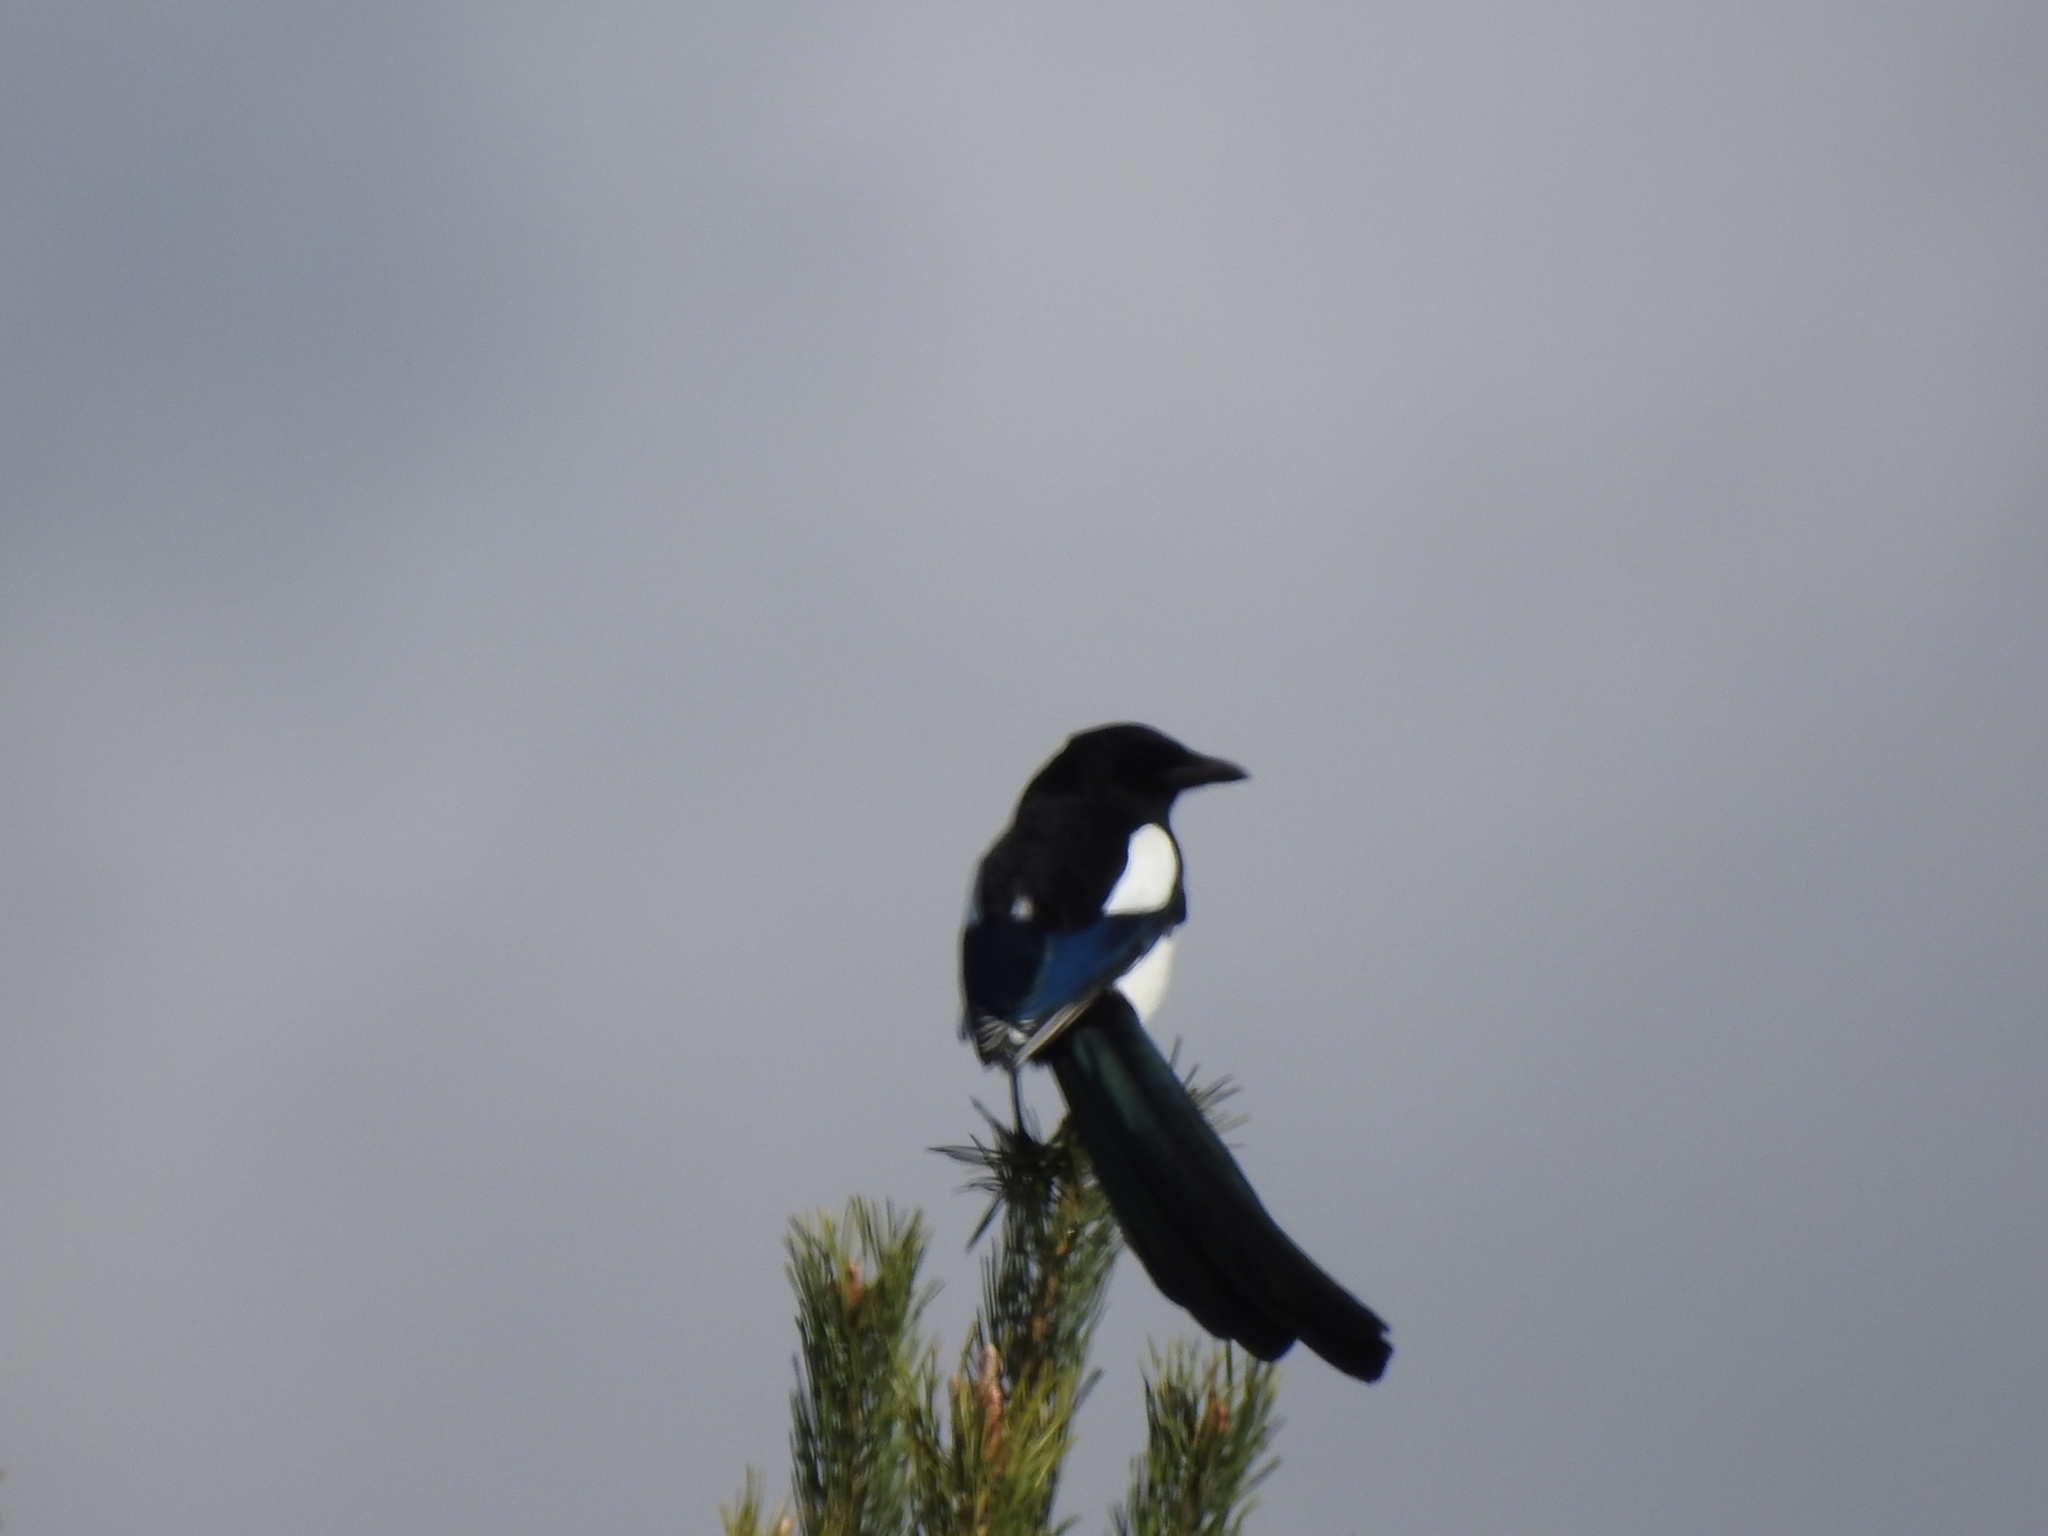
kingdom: Animalia
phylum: Chordata
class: Aves
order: Passeriformes
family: Corvidae
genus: Pica
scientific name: Pica pica
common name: Eurasian magpie
